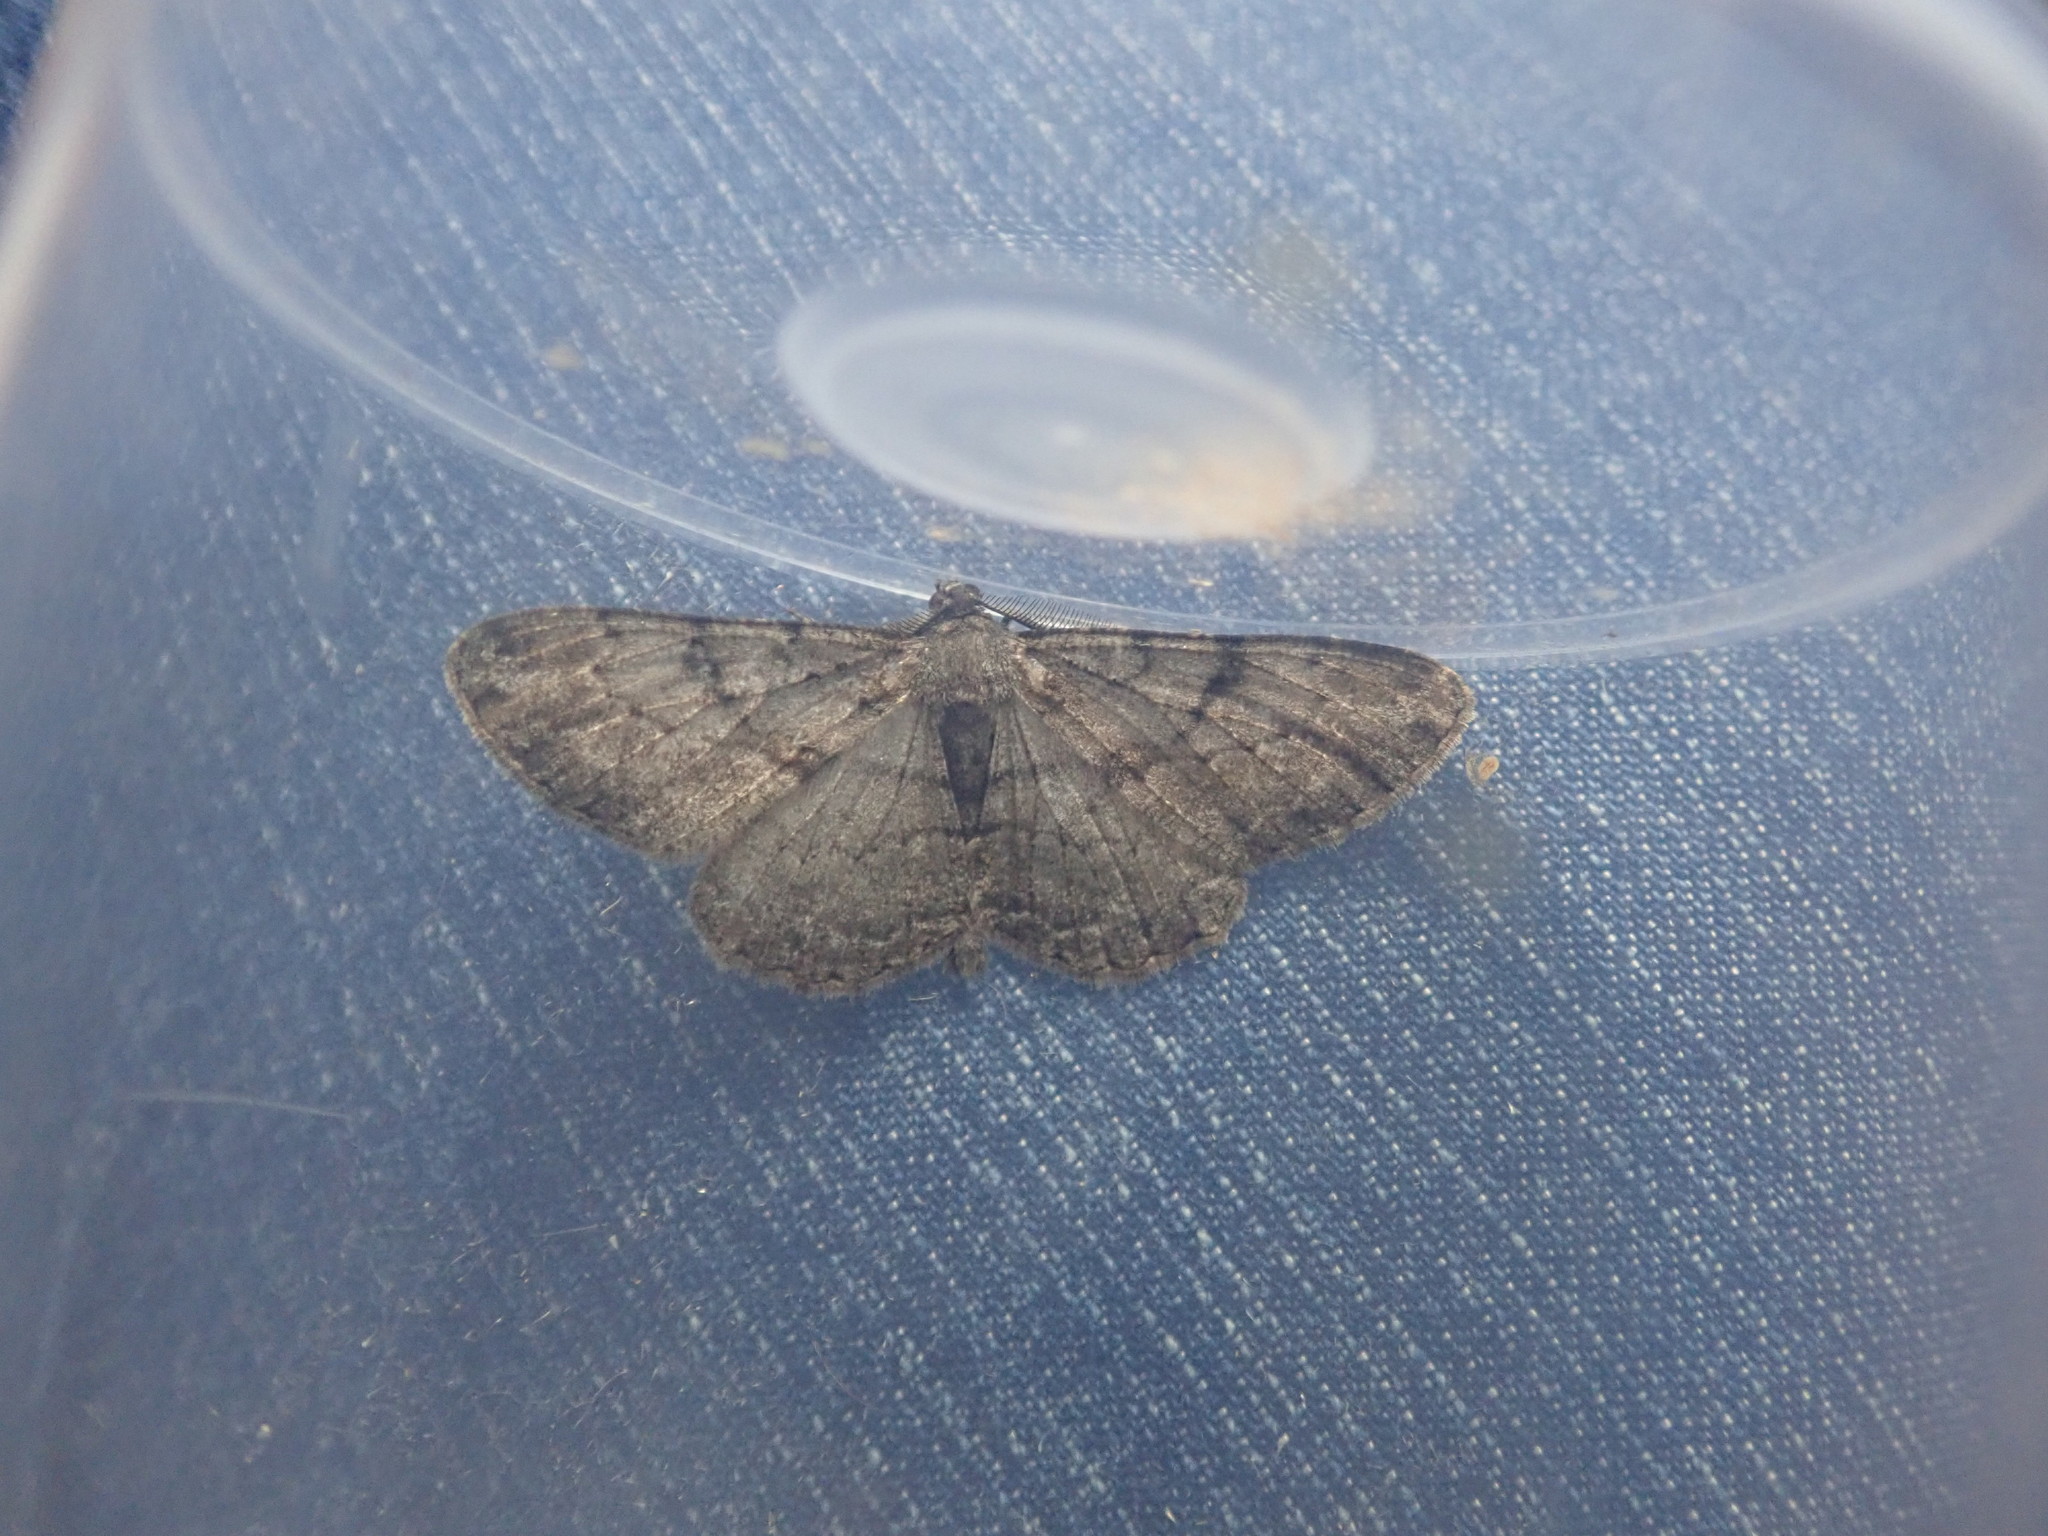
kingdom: Animalia
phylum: Arthropoda
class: Insecta
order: Lepidoptera
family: Geometridae
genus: Peribatodes
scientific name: Peribatodes rhomboidaria
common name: Willow beauty
